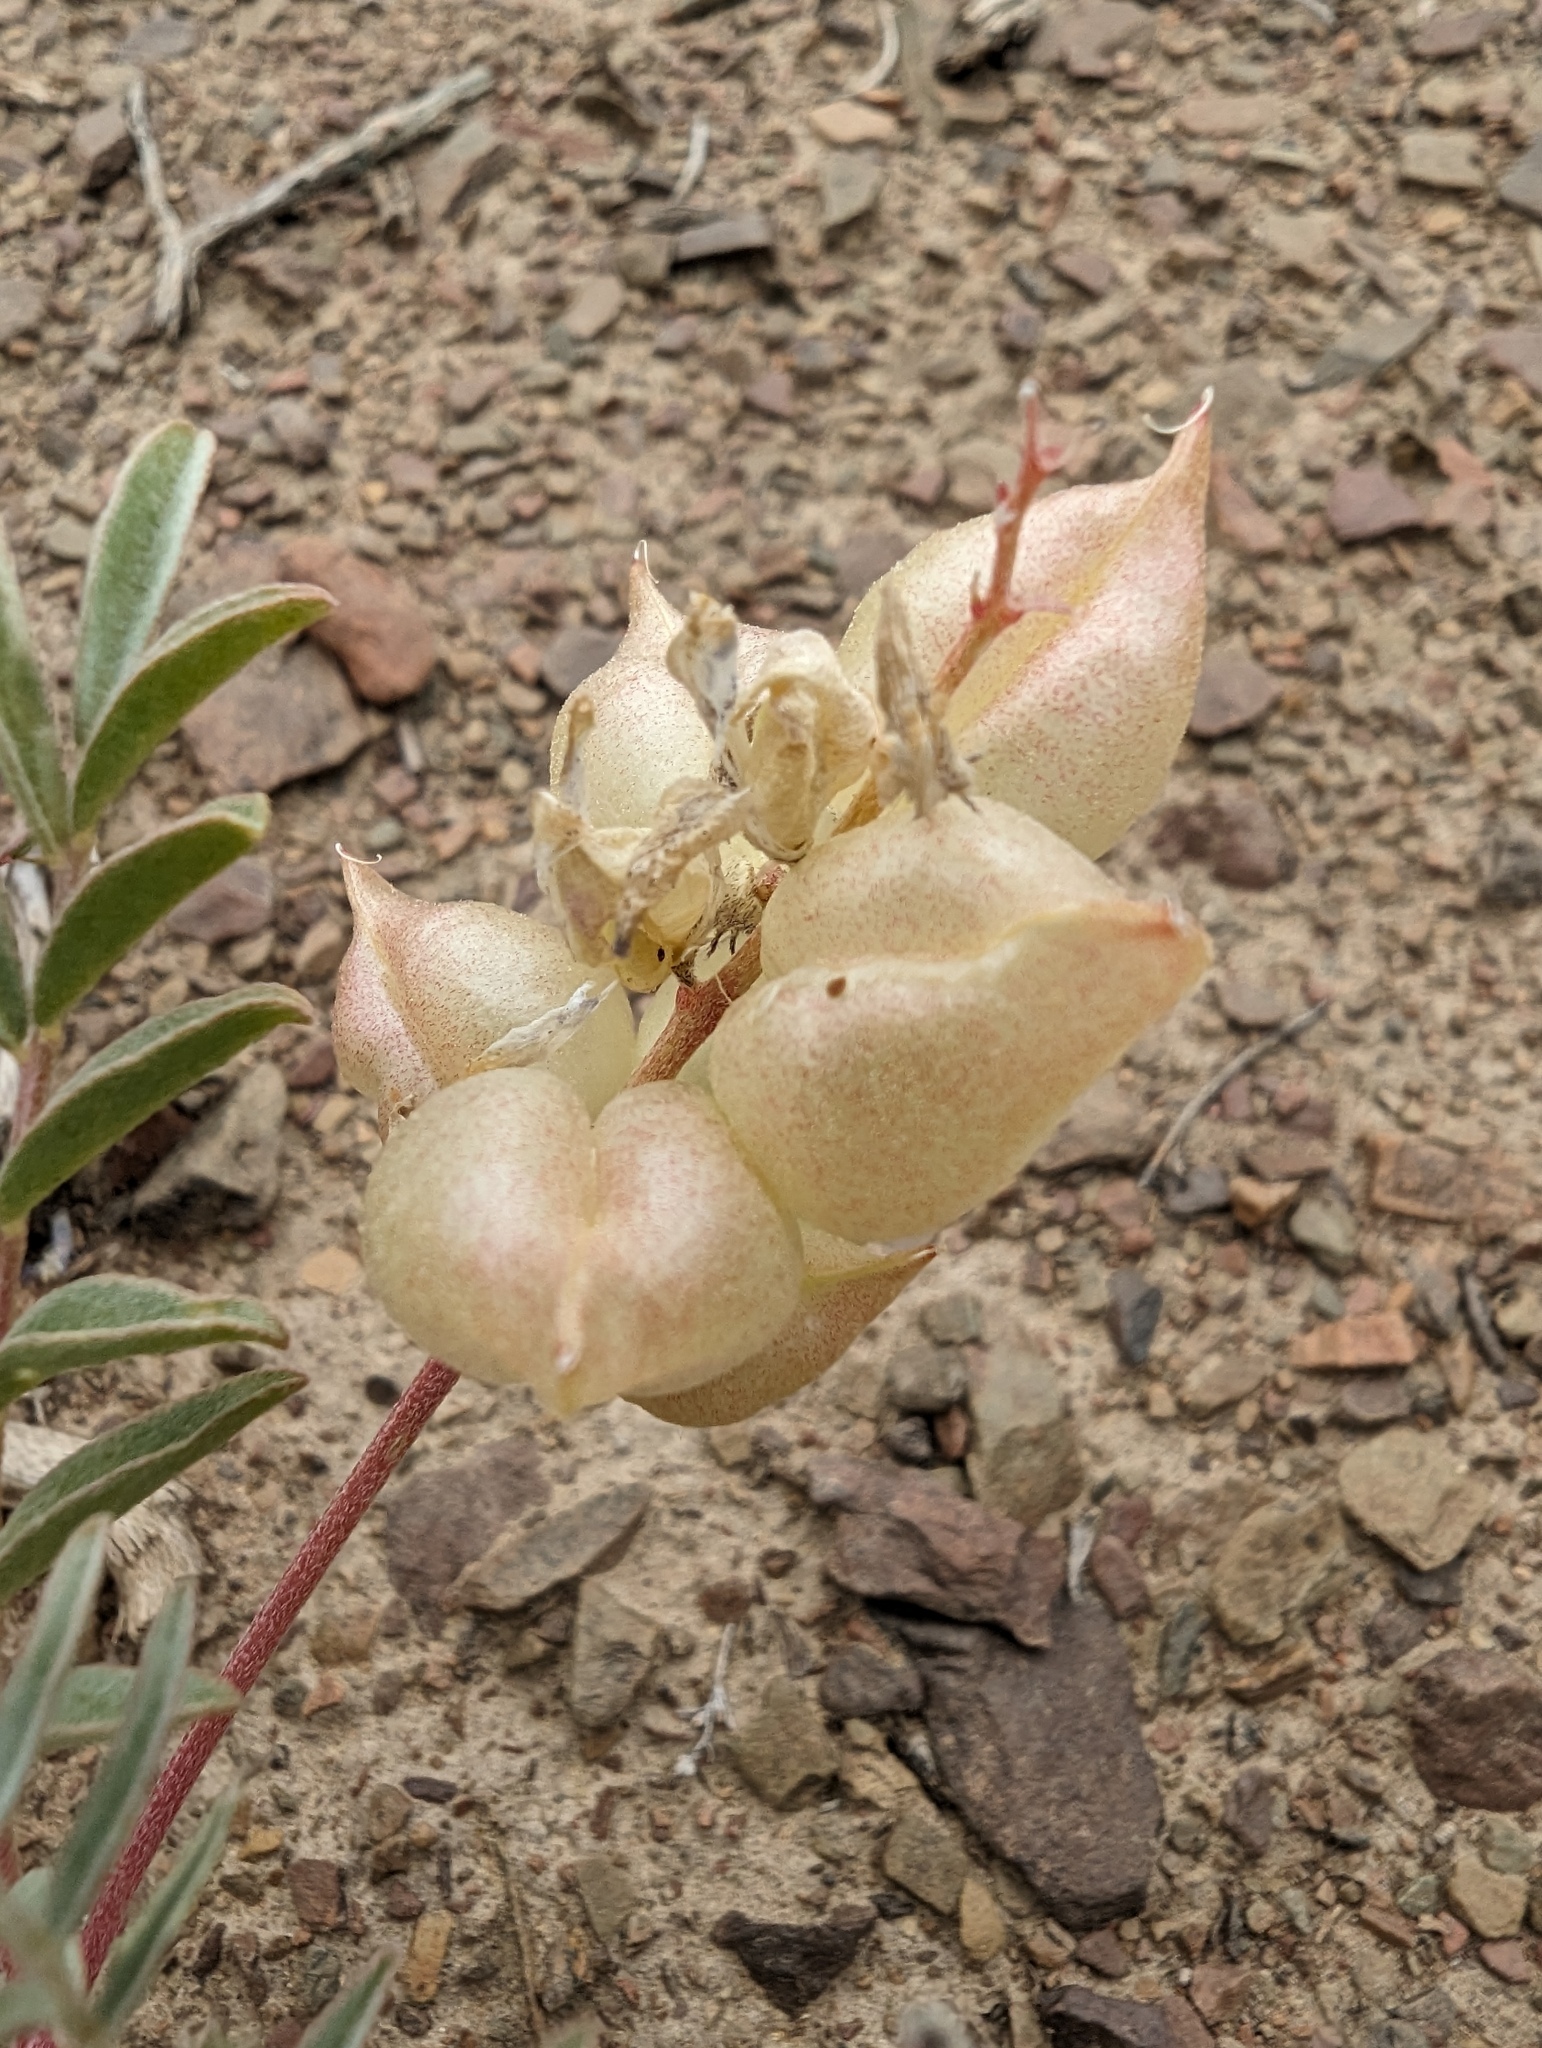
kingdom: Plantae
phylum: Tracheophyta
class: Magnoliopsida
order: Fabales
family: Fabaceae
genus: Astragalus
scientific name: Astragalus lentiginosus
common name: Freckled milkvetch
